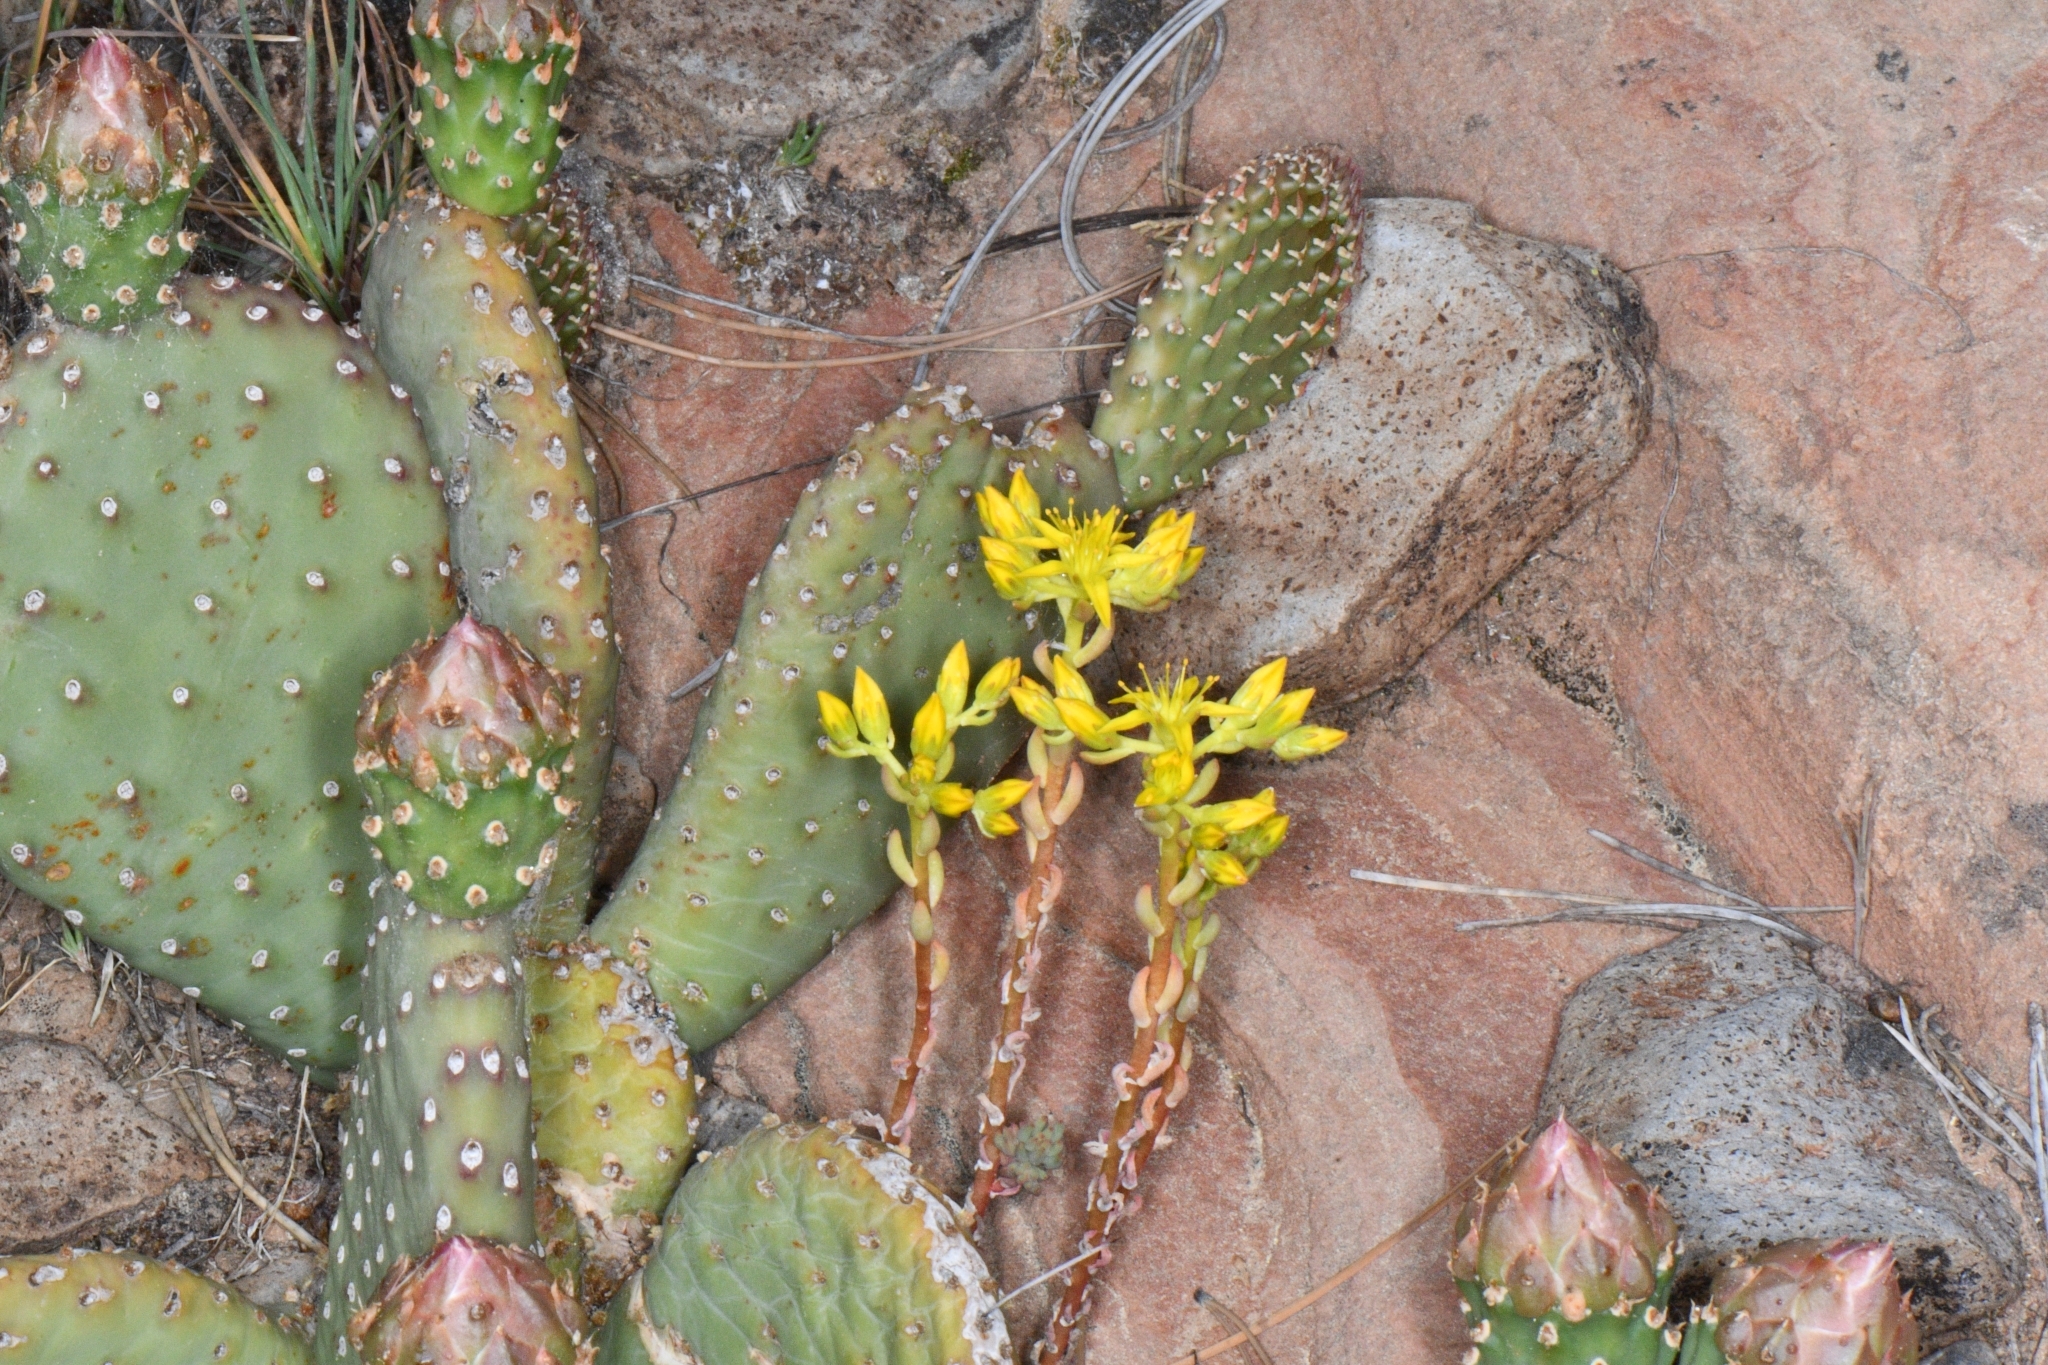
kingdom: Plantae
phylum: Tracheophyta
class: Magnoliopsida
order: Saxifragales
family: Crassulaceae
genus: Sedum
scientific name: Sedum lanceolatum
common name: Common stonecrop
